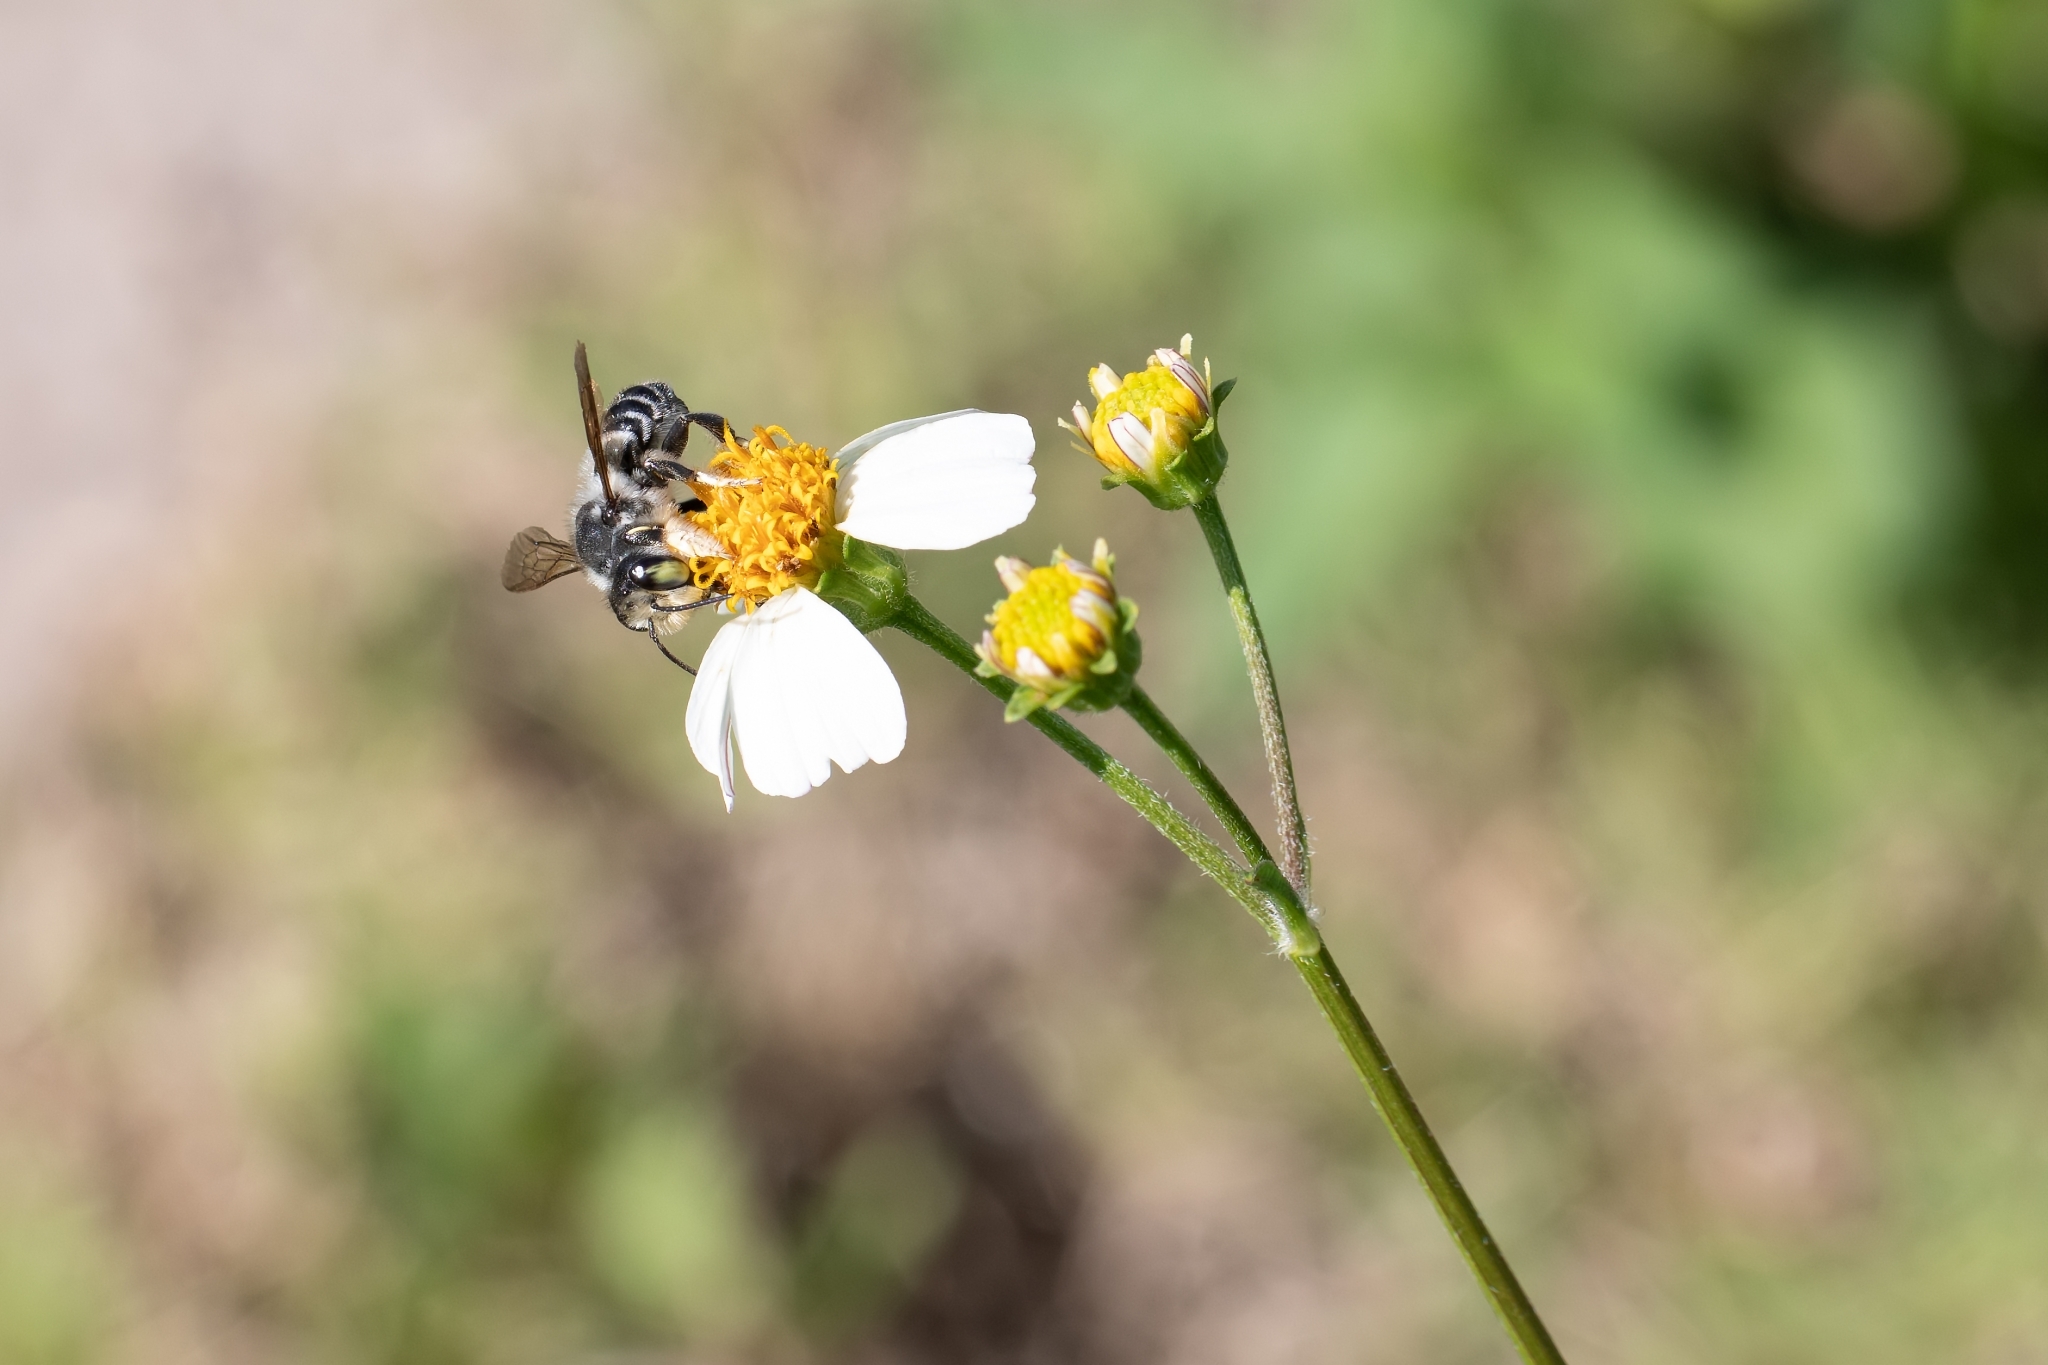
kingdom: Animalia
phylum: Arthropoda
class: Insecta
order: Hymenoptera
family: Megachilidae
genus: Megachile
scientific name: Megachile pruina
